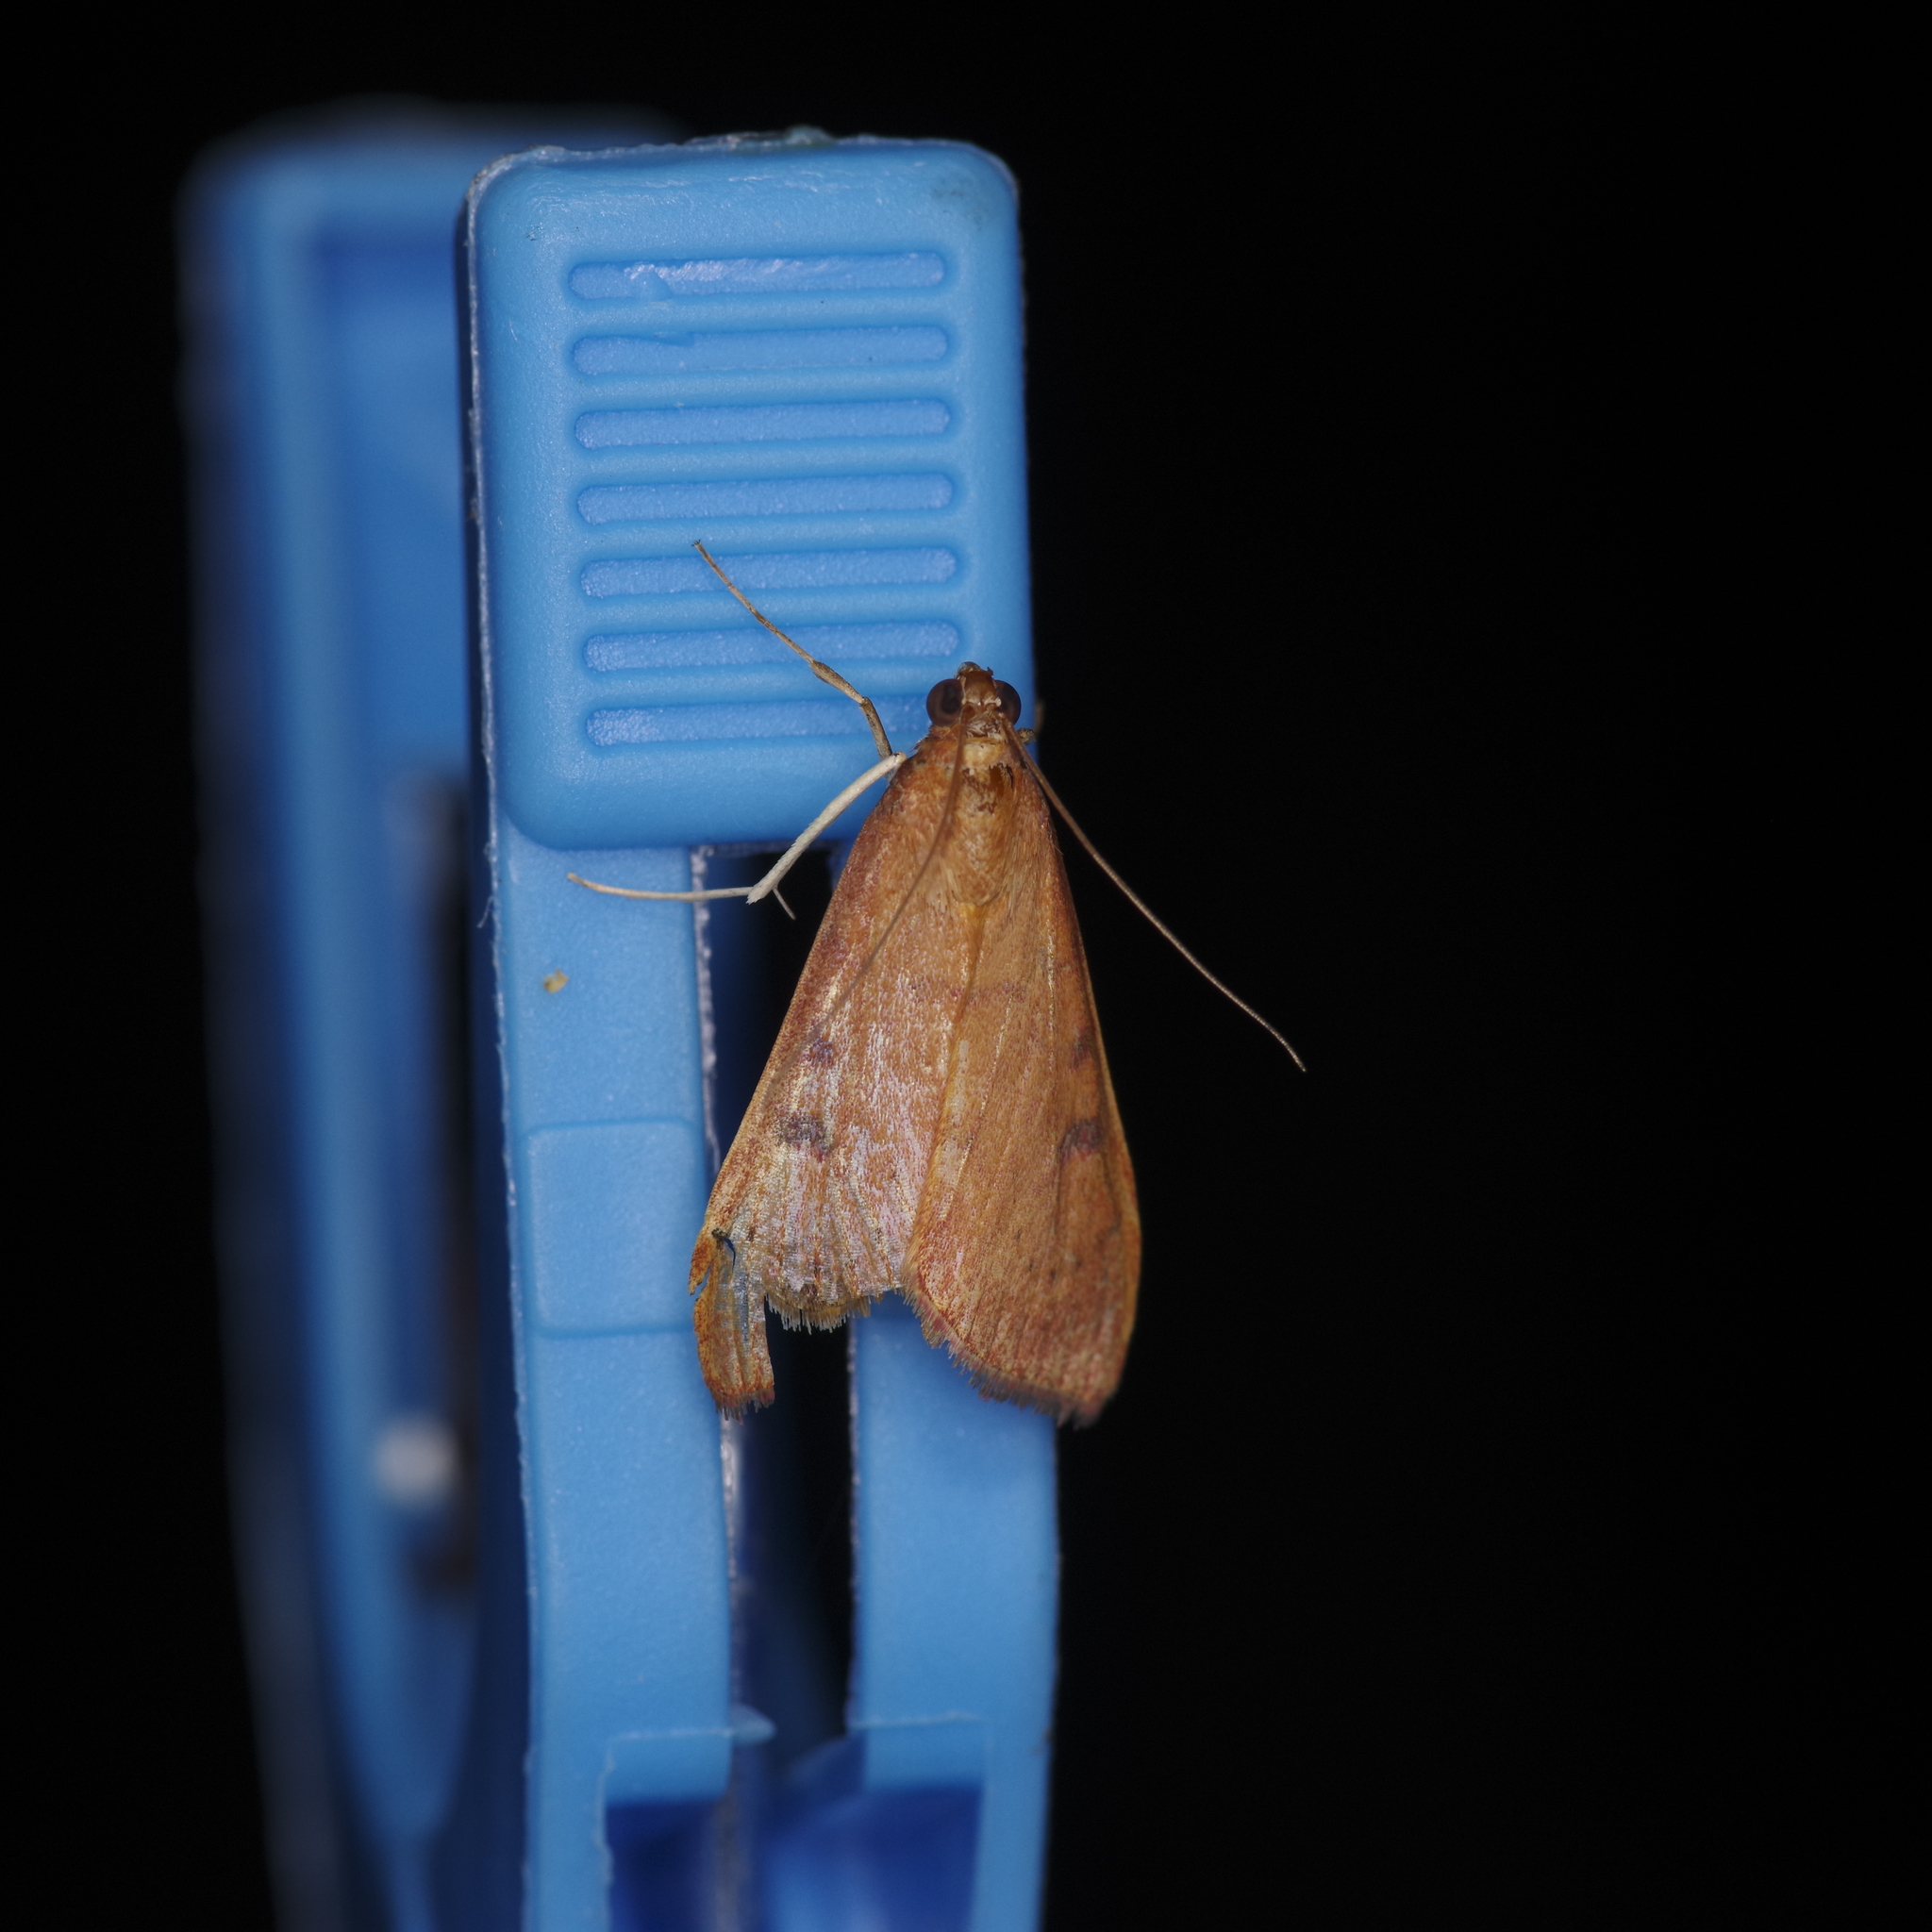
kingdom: Animalia
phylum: Arthropoda
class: Insecta
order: Lepidoptera
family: Crambidae
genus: Uresiphita
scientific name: Uresiphita reversalis
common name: Genista broom moth
